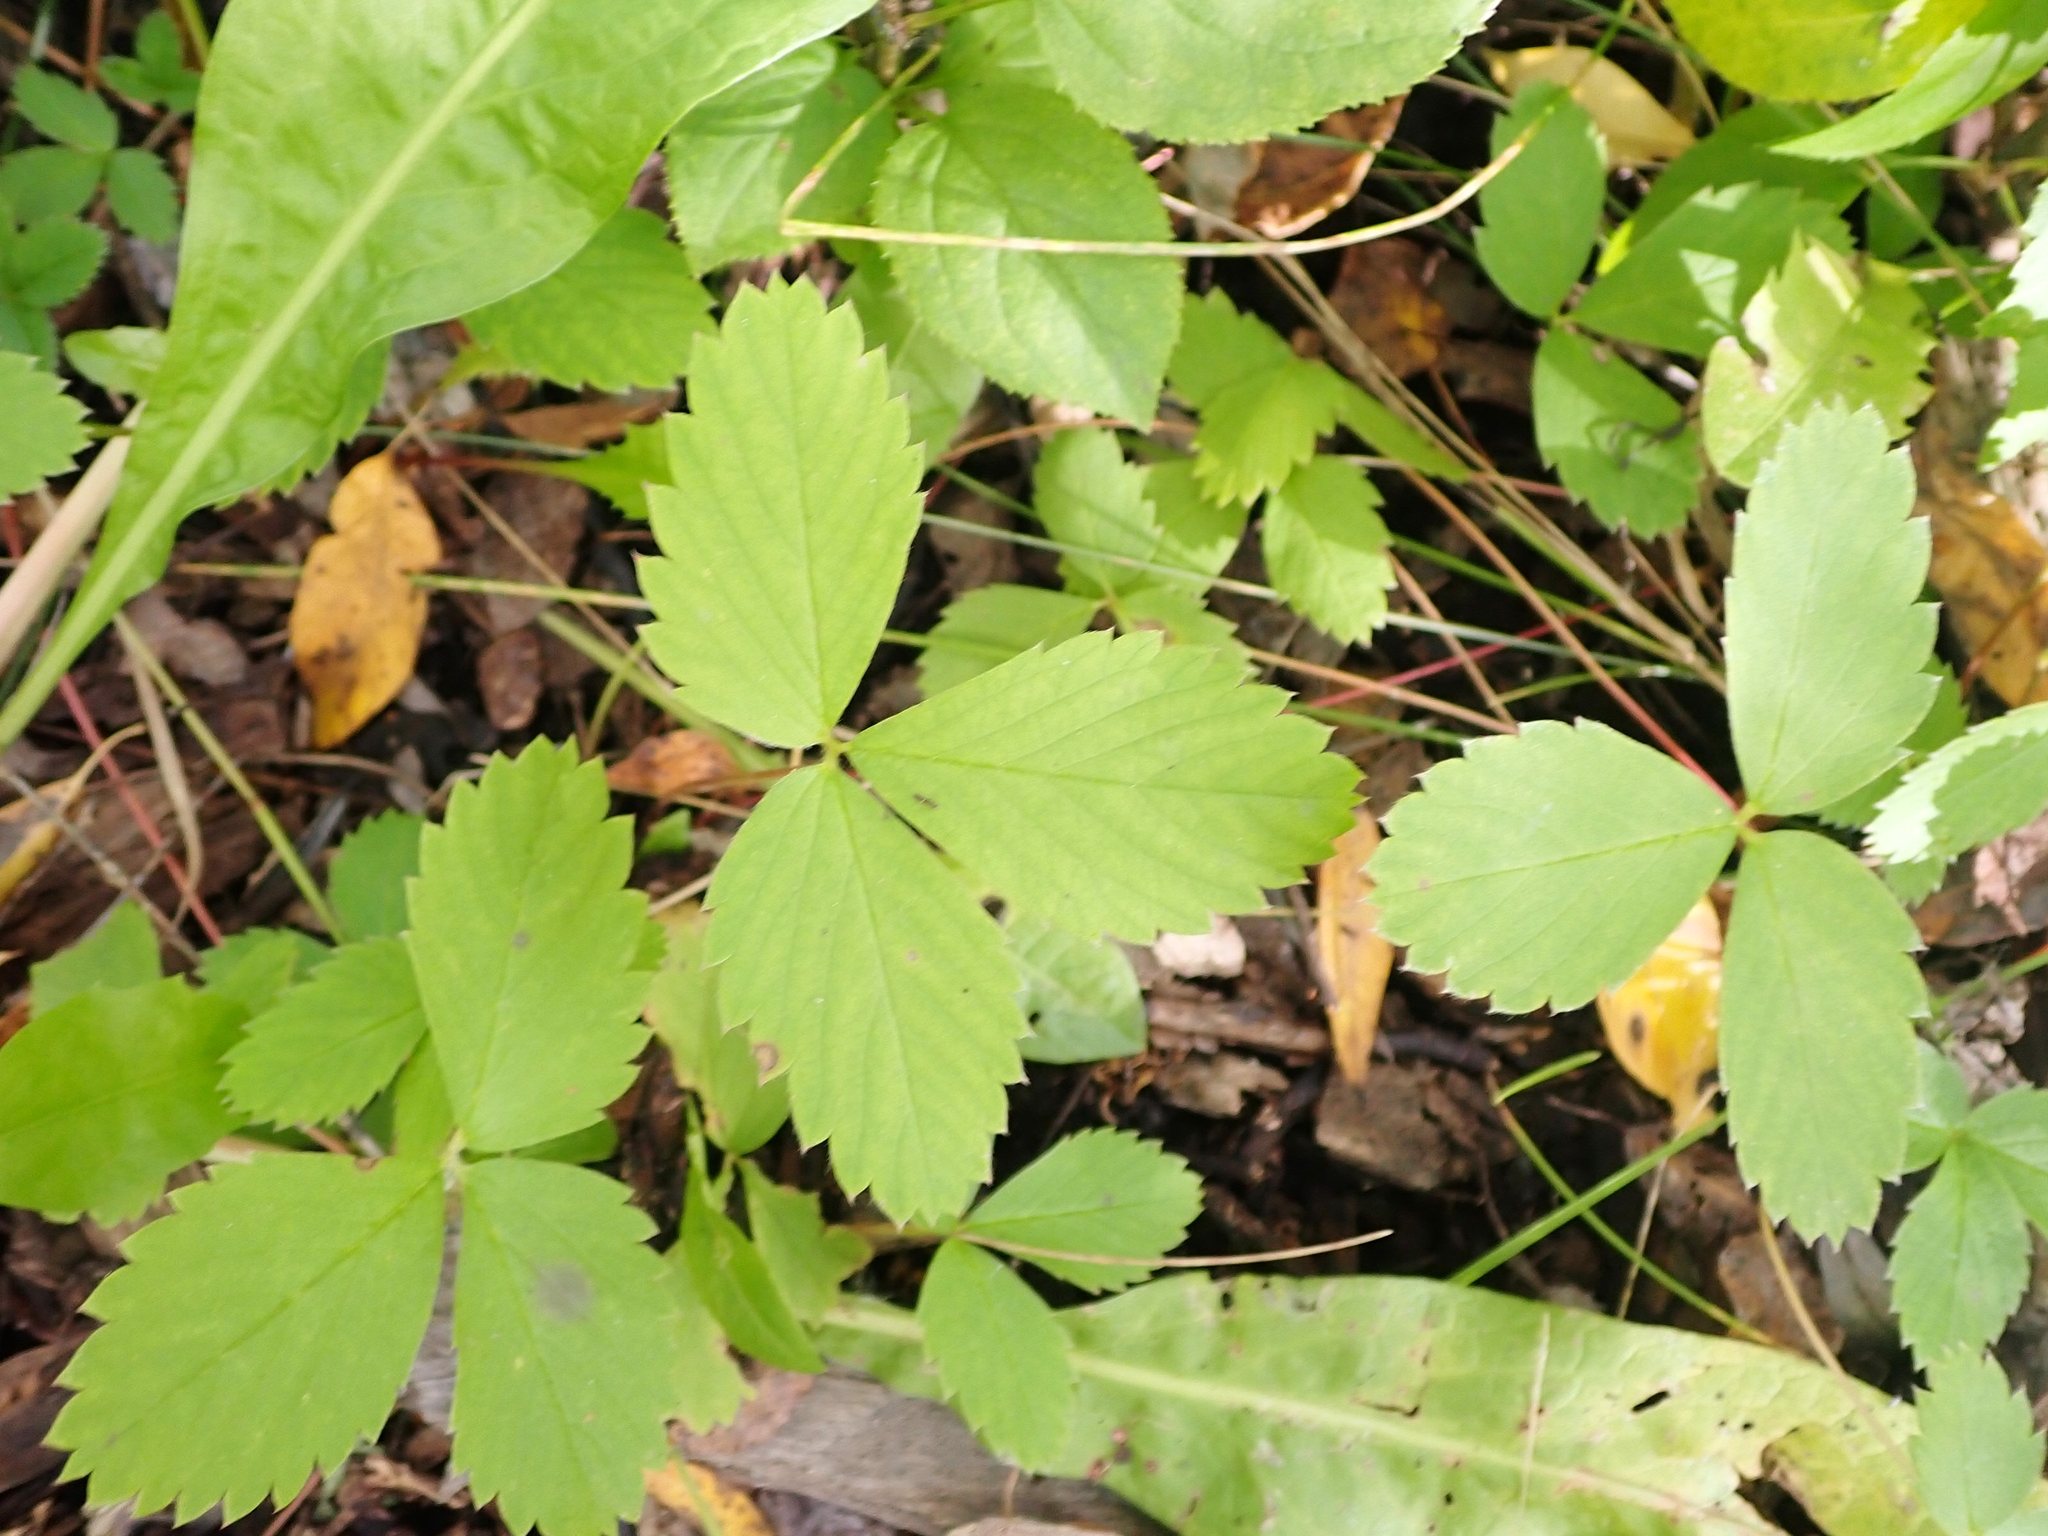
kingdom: Plantae
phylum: Tracheophyta
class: Magnoliopsida
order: Rosales
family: Rosaceae
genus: Fragaria
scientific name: Fragaria virginiana
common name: Thickleaved wild strawberry
